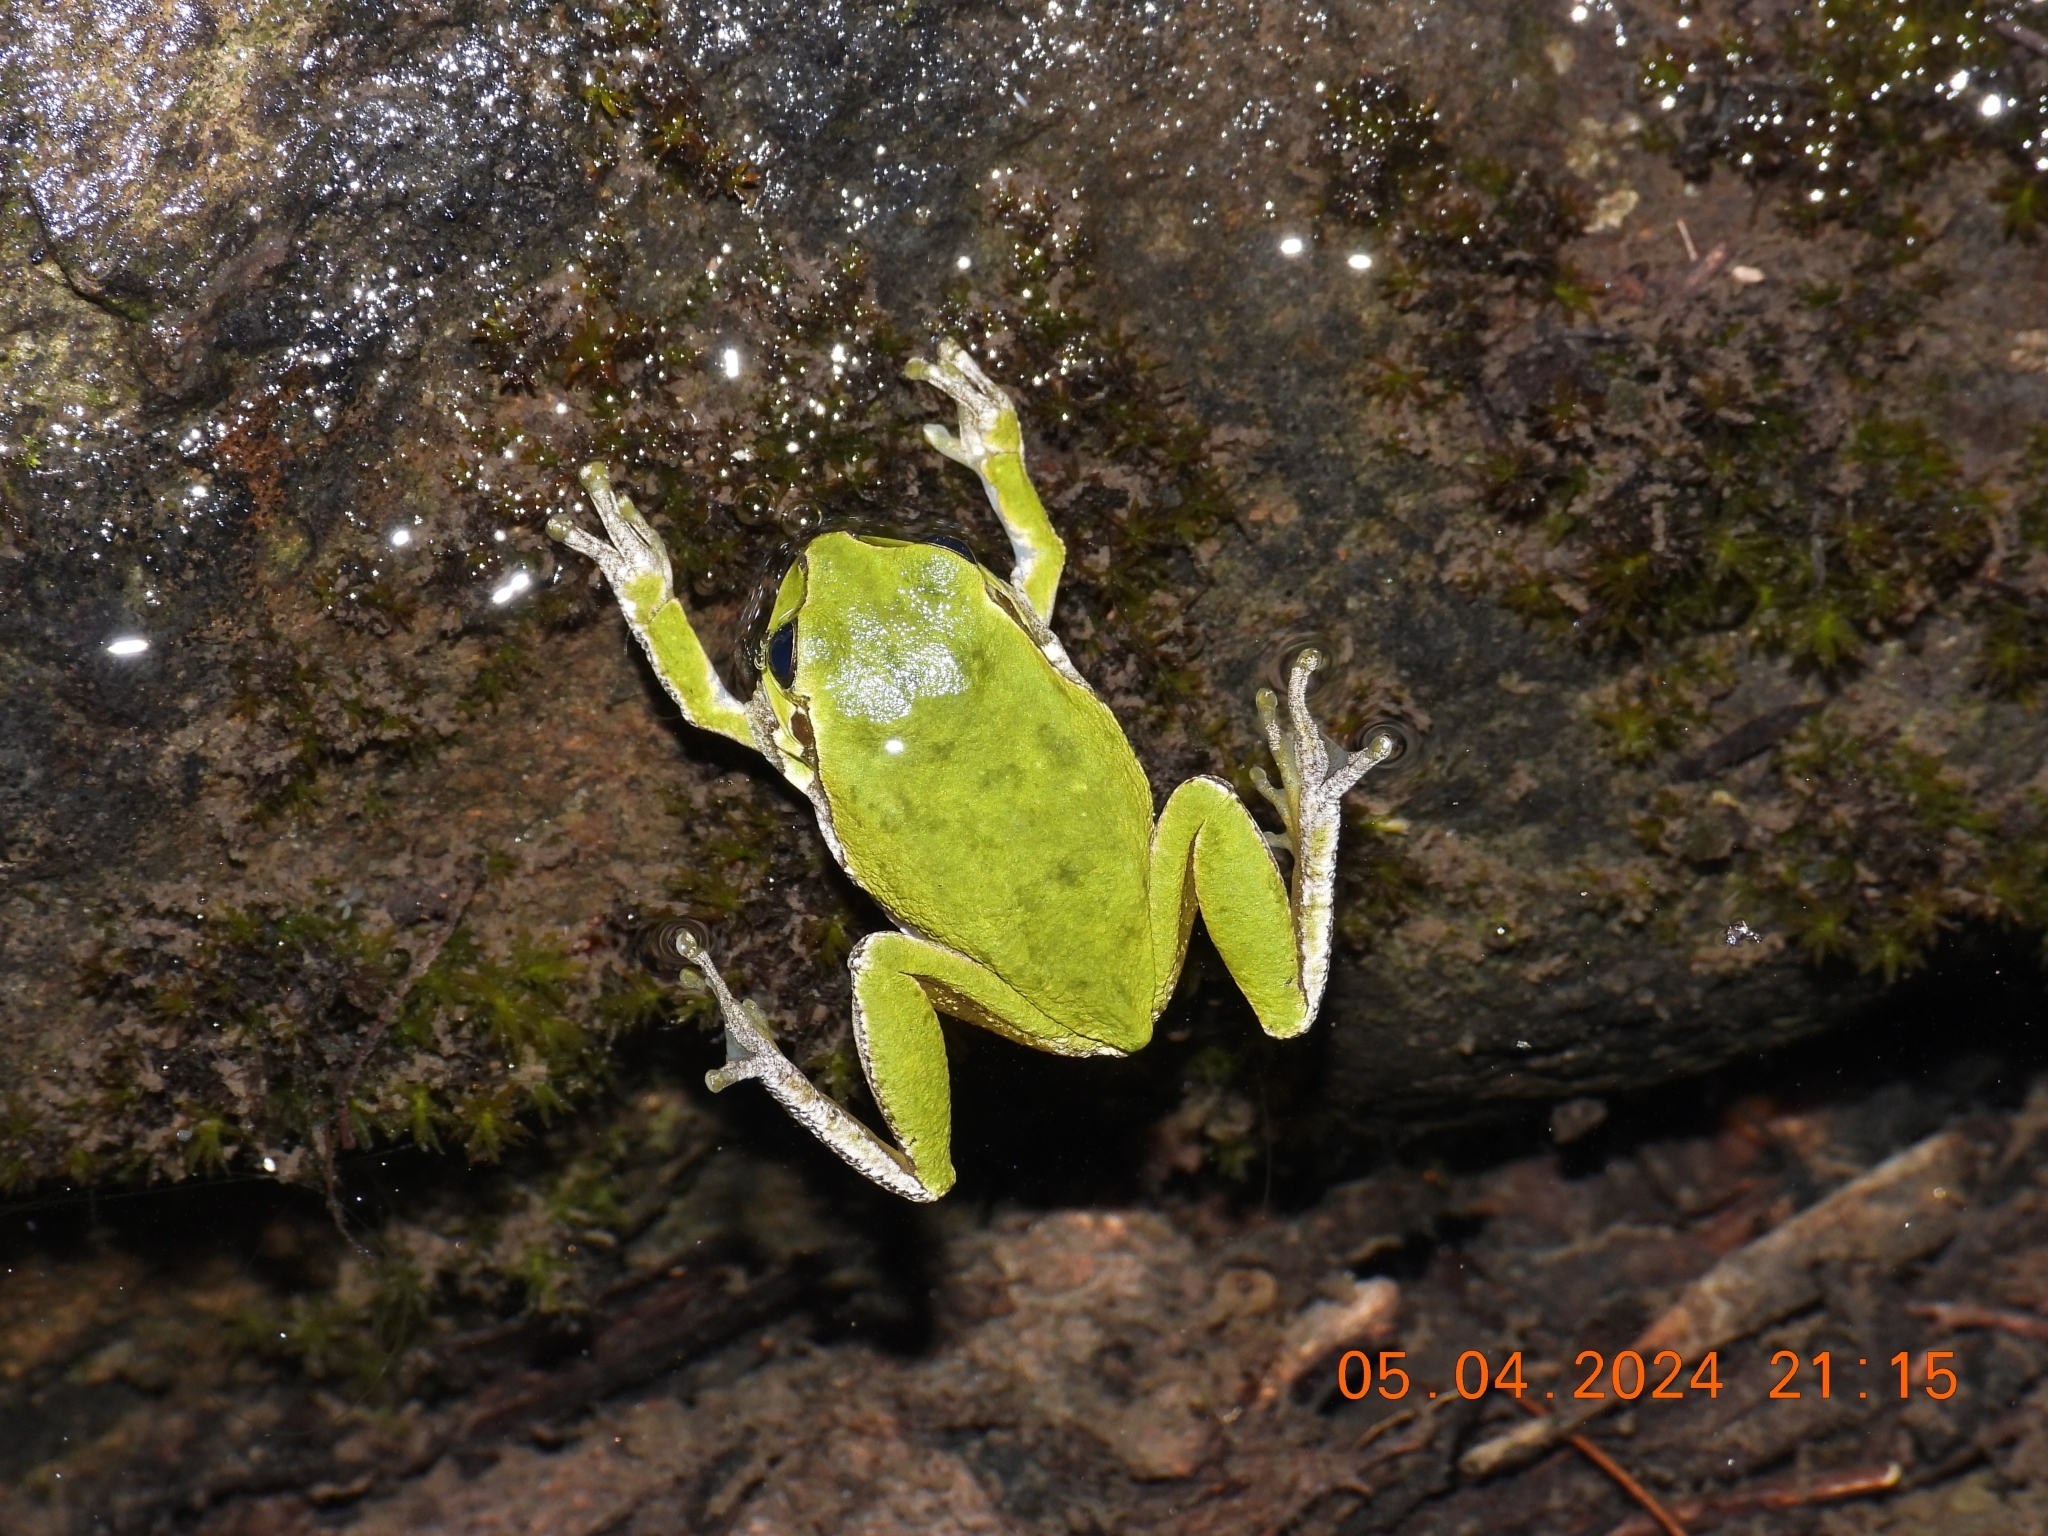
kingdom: Animalia
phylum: Chordata
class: Amphibia
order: Anura
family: Hylidae
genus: Hyla
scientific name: Hyla sarda
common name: Sardinian tree frog
